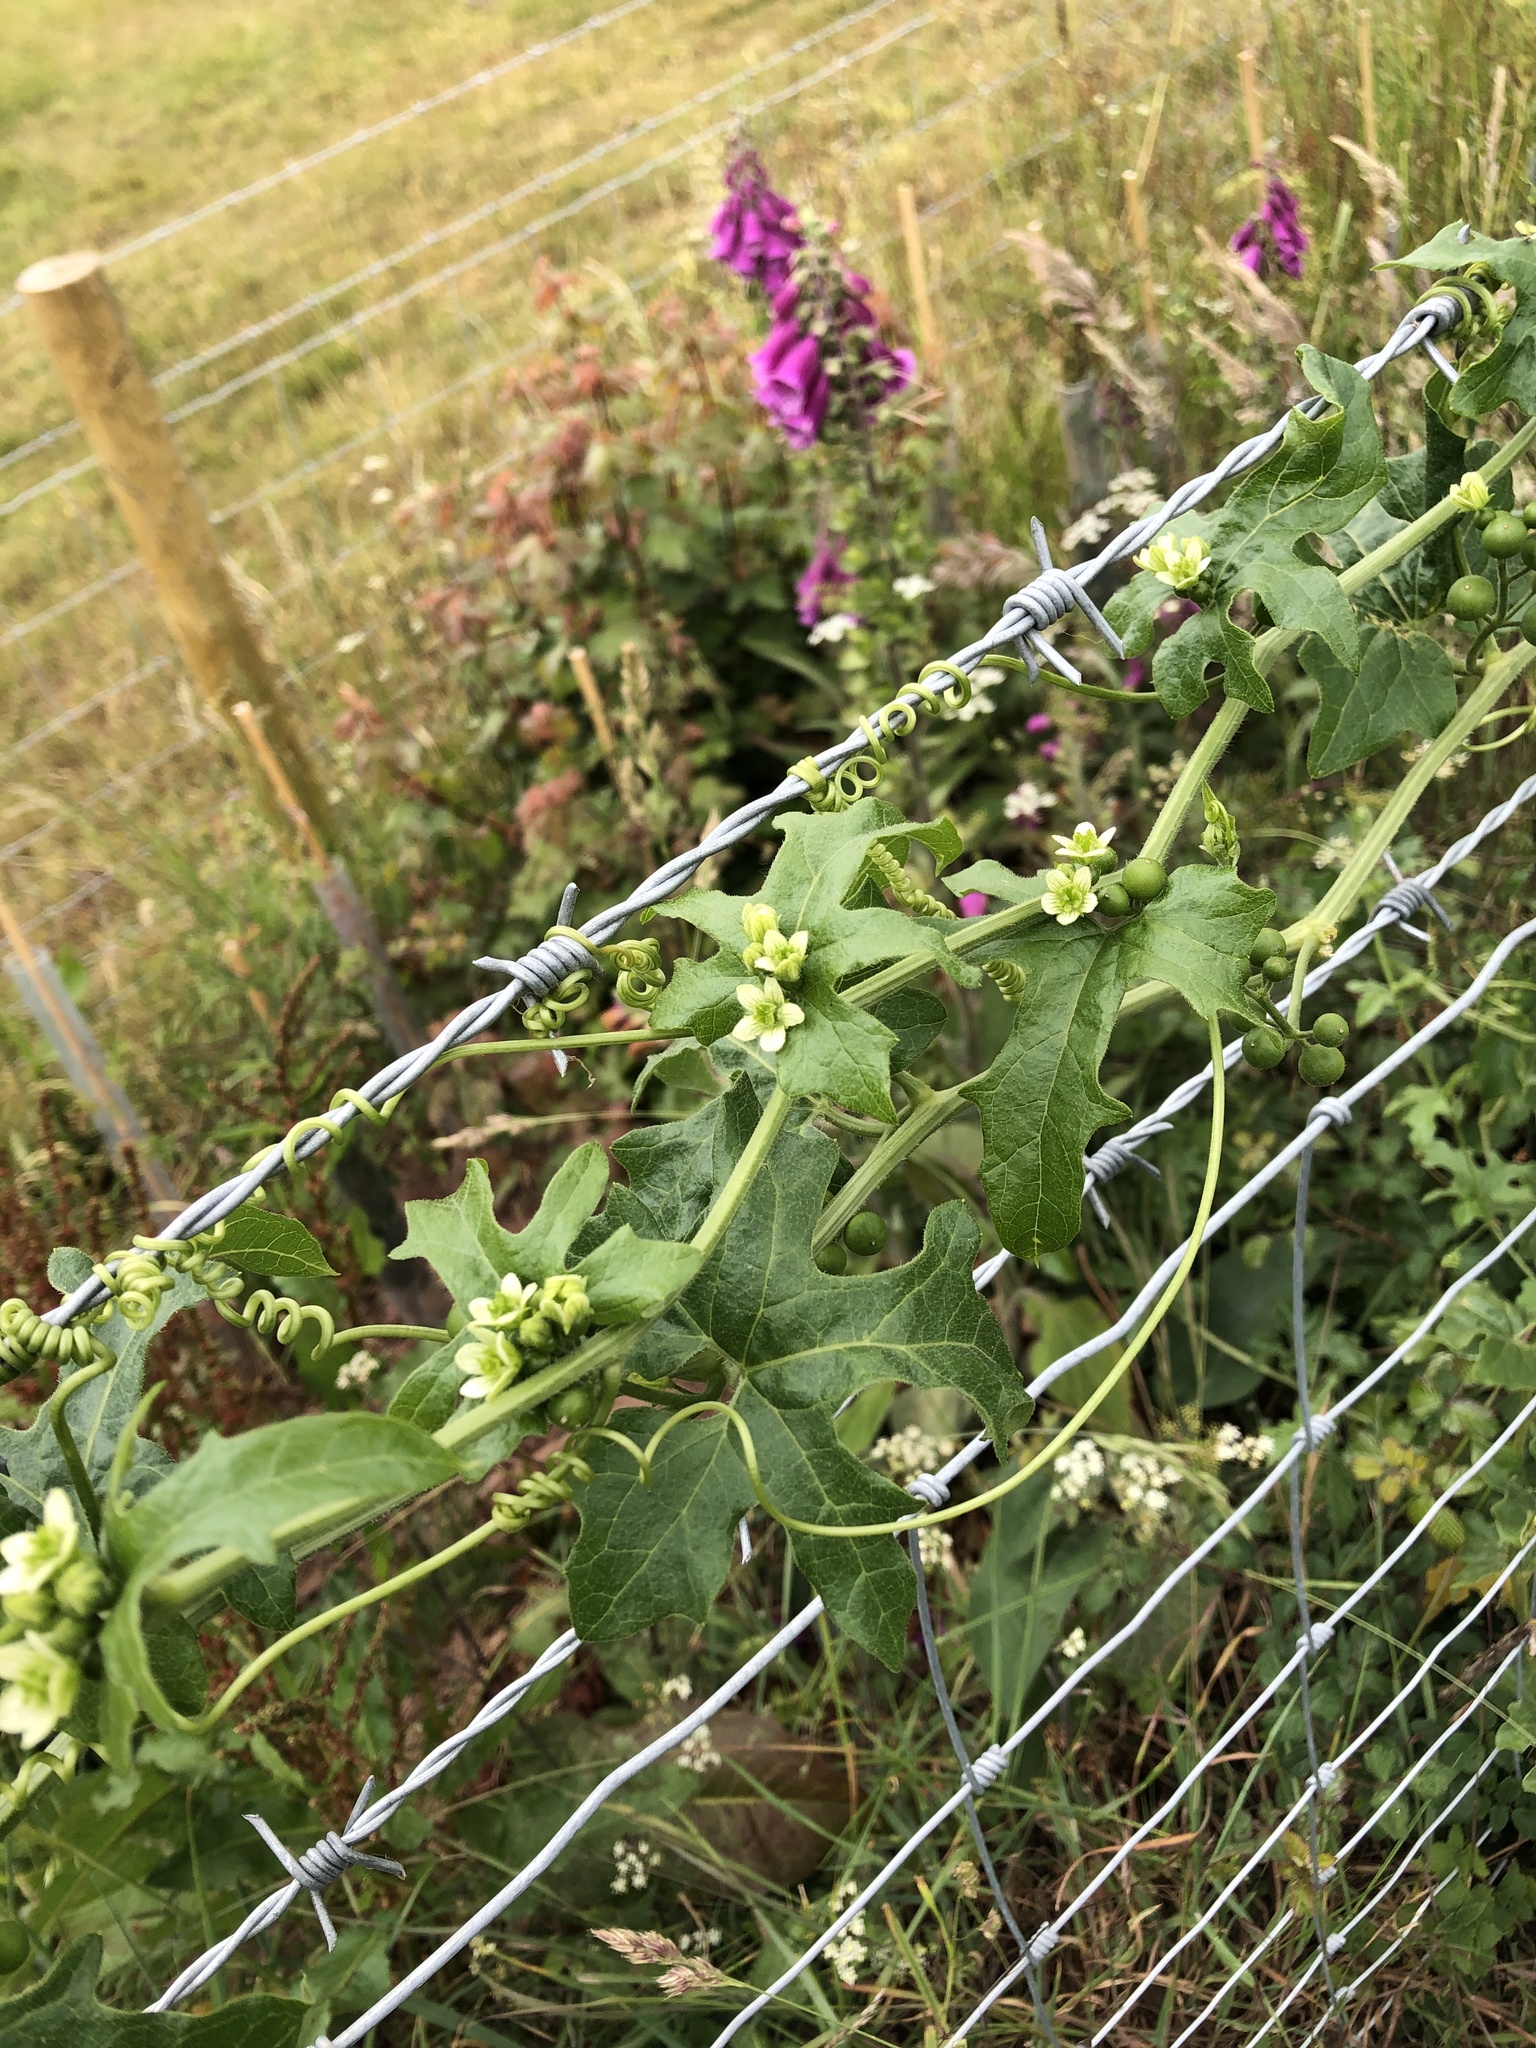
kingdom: Plantae
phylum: Tracheophyta
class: Magnoliopsida
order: Cucurbitales
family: Cucurbitaceae
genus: Bryonia
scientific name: Bryonia cretica
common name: Cretan bryony
